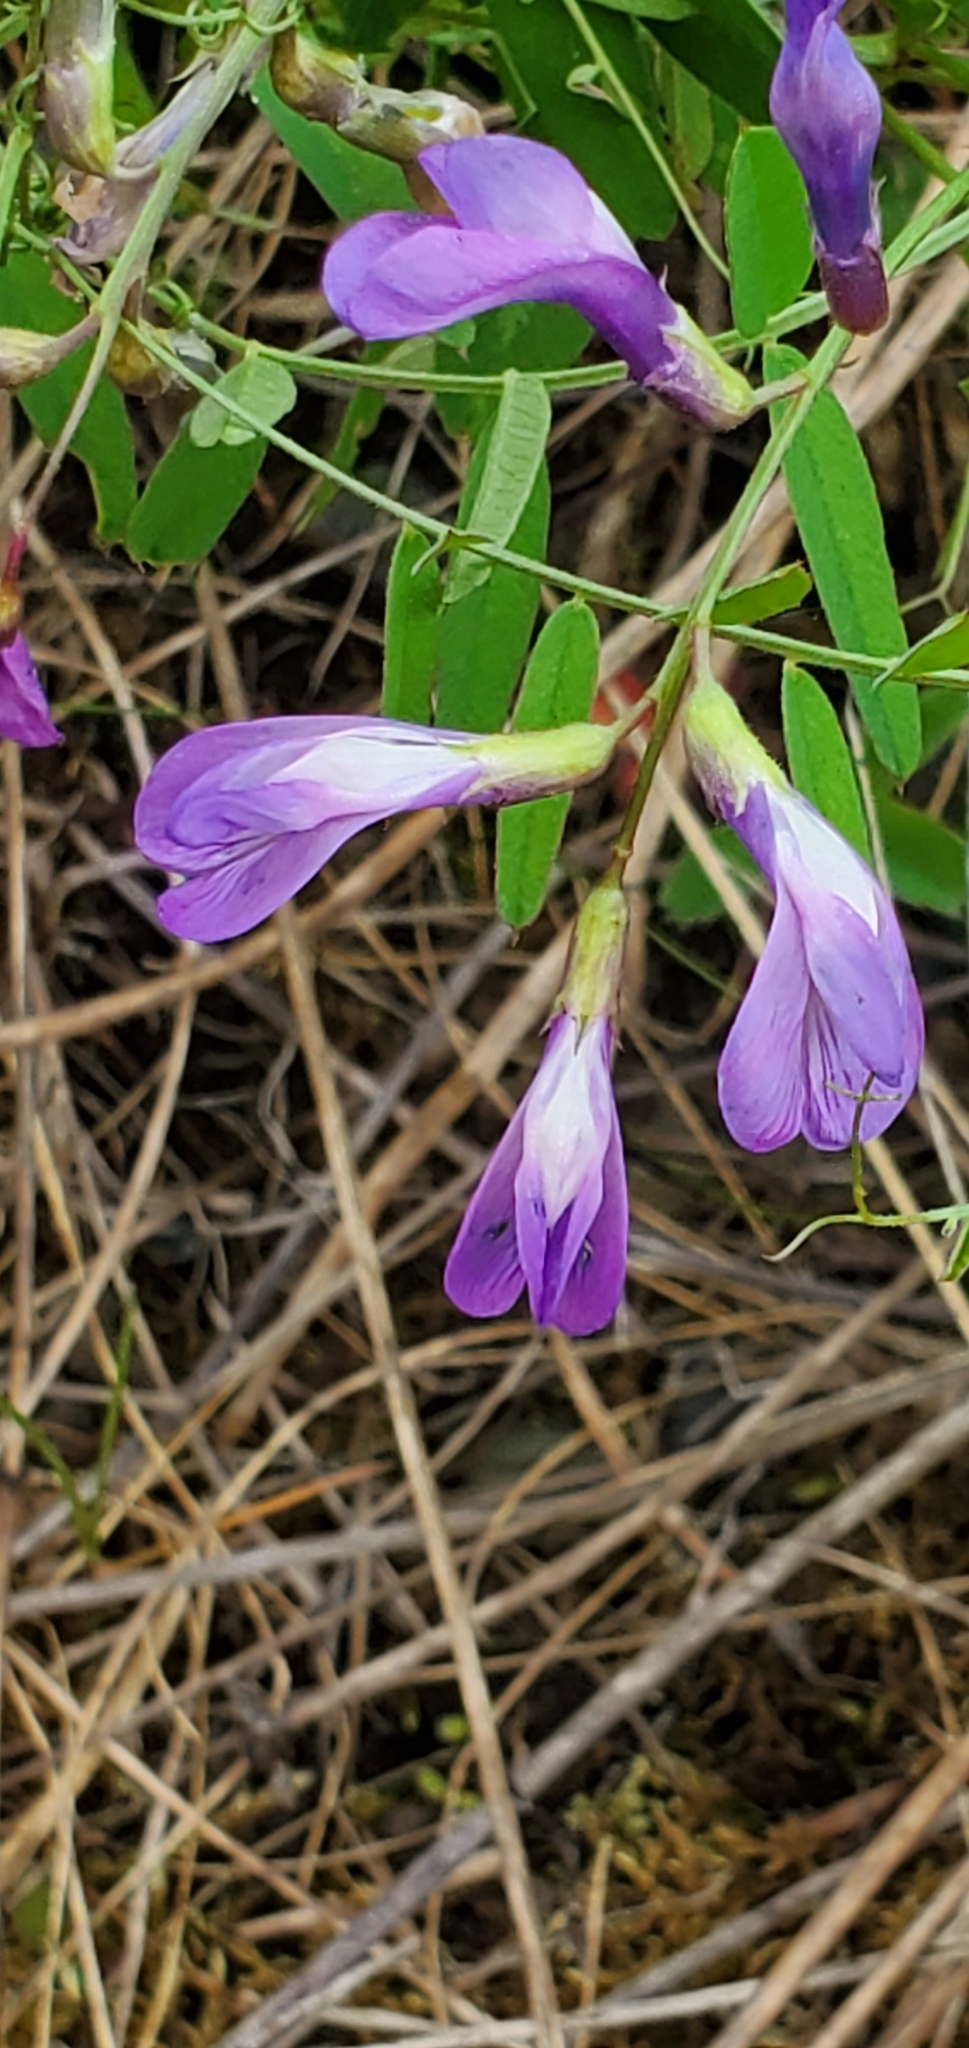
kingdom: Plantae
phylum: Tracheophyta
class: Magnoliopsida
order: Fabales
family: Fabaceae
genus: Vicia
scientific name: Vicia americana
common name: American vetch
